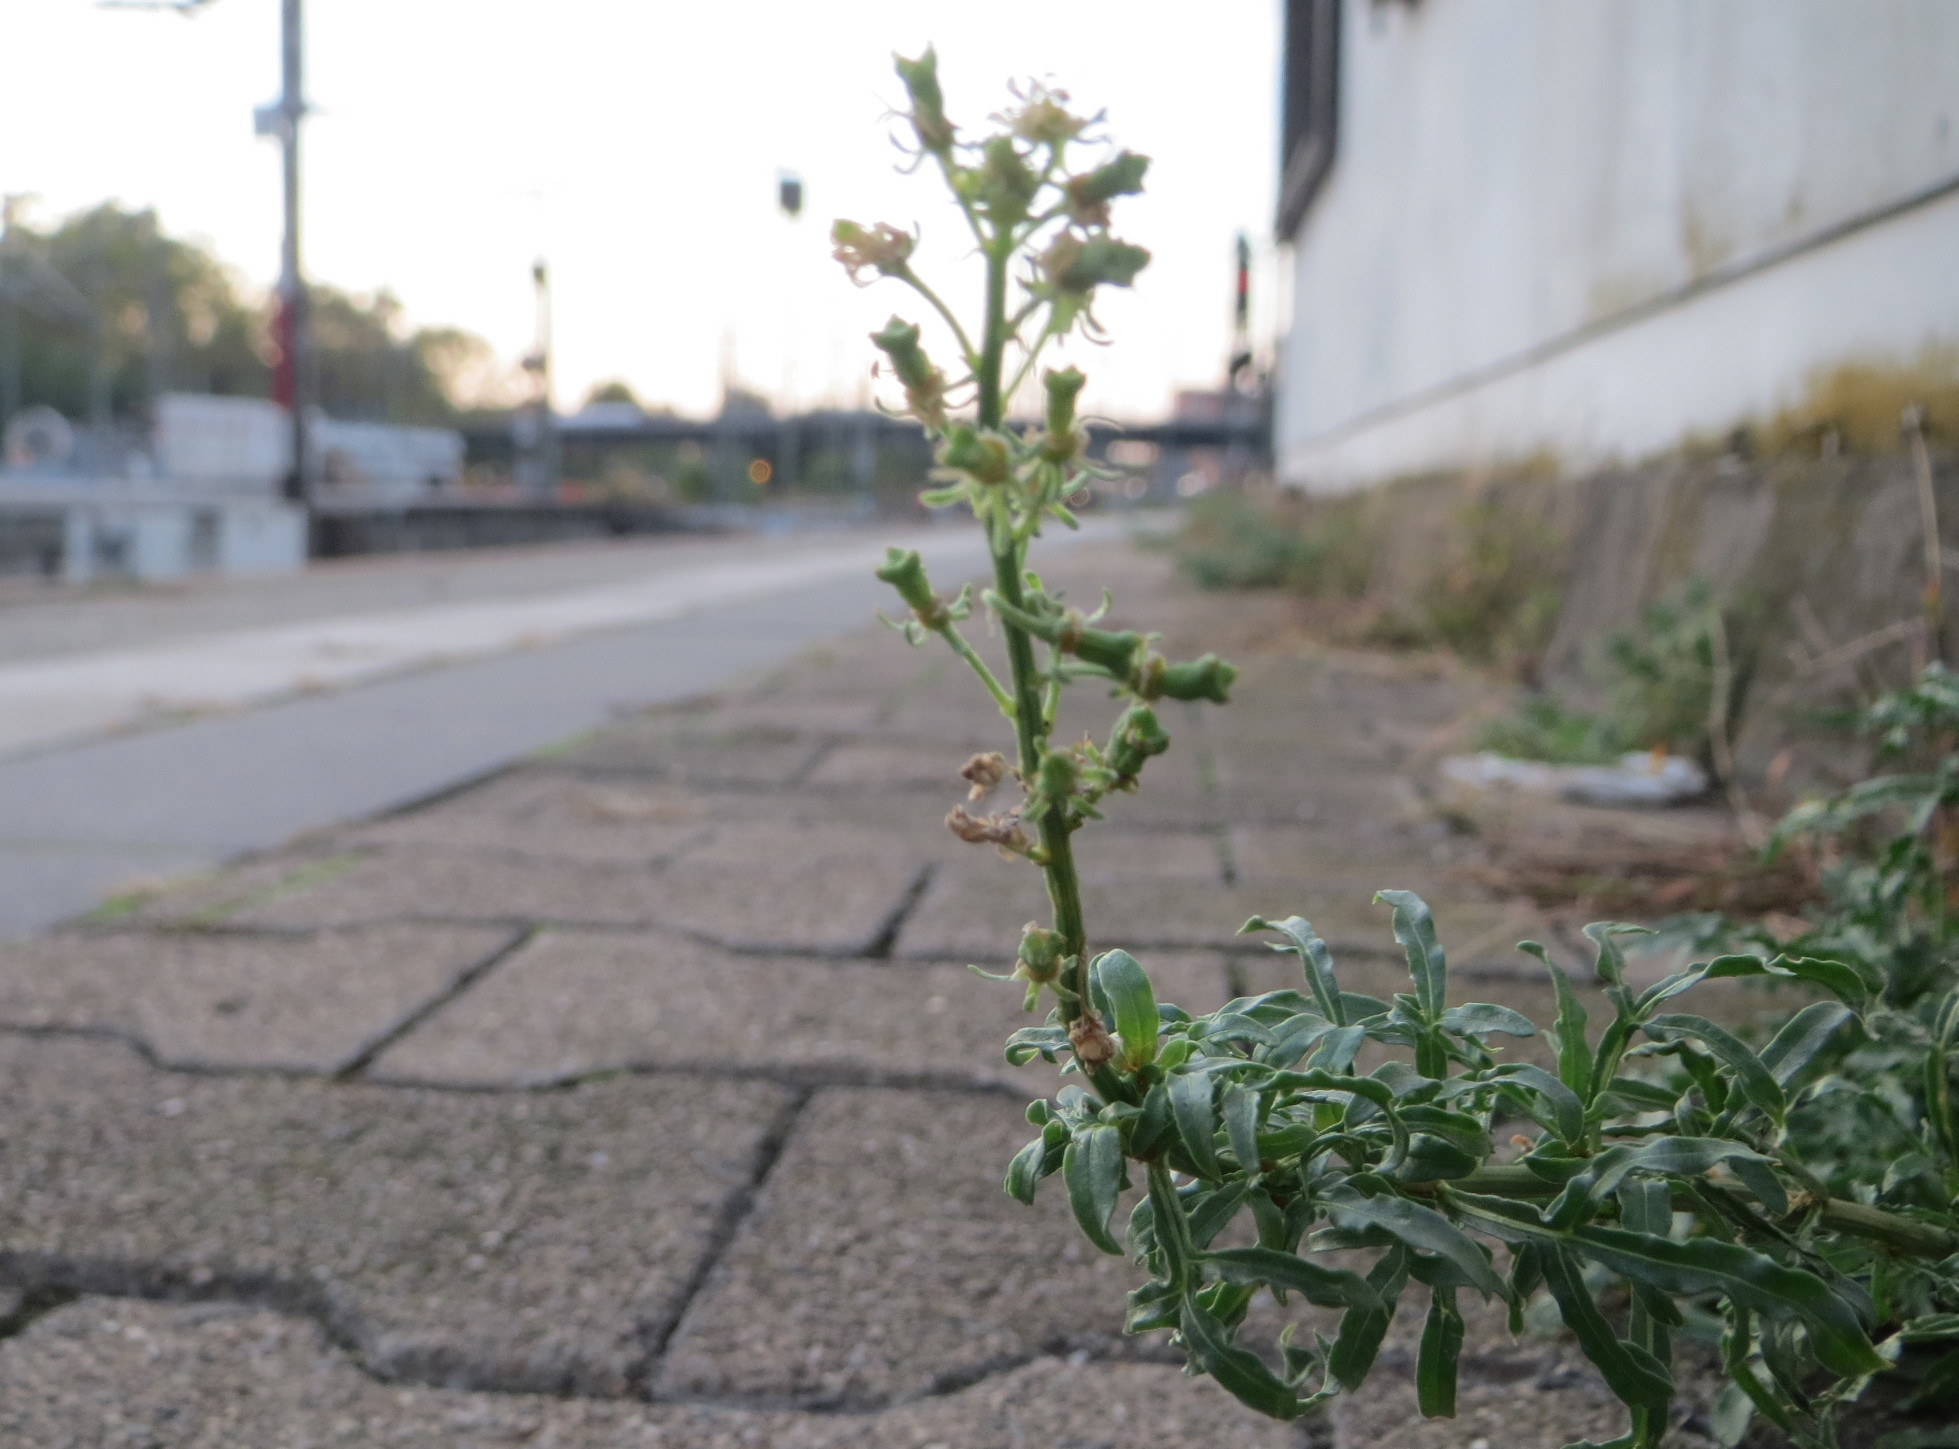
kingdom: Plantae
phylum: Tracheophyta
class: Magnoliopsida
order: Brassicales
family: Resedaceae
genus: Reseda
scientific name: Reseda lutea
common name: Wild mignonette
